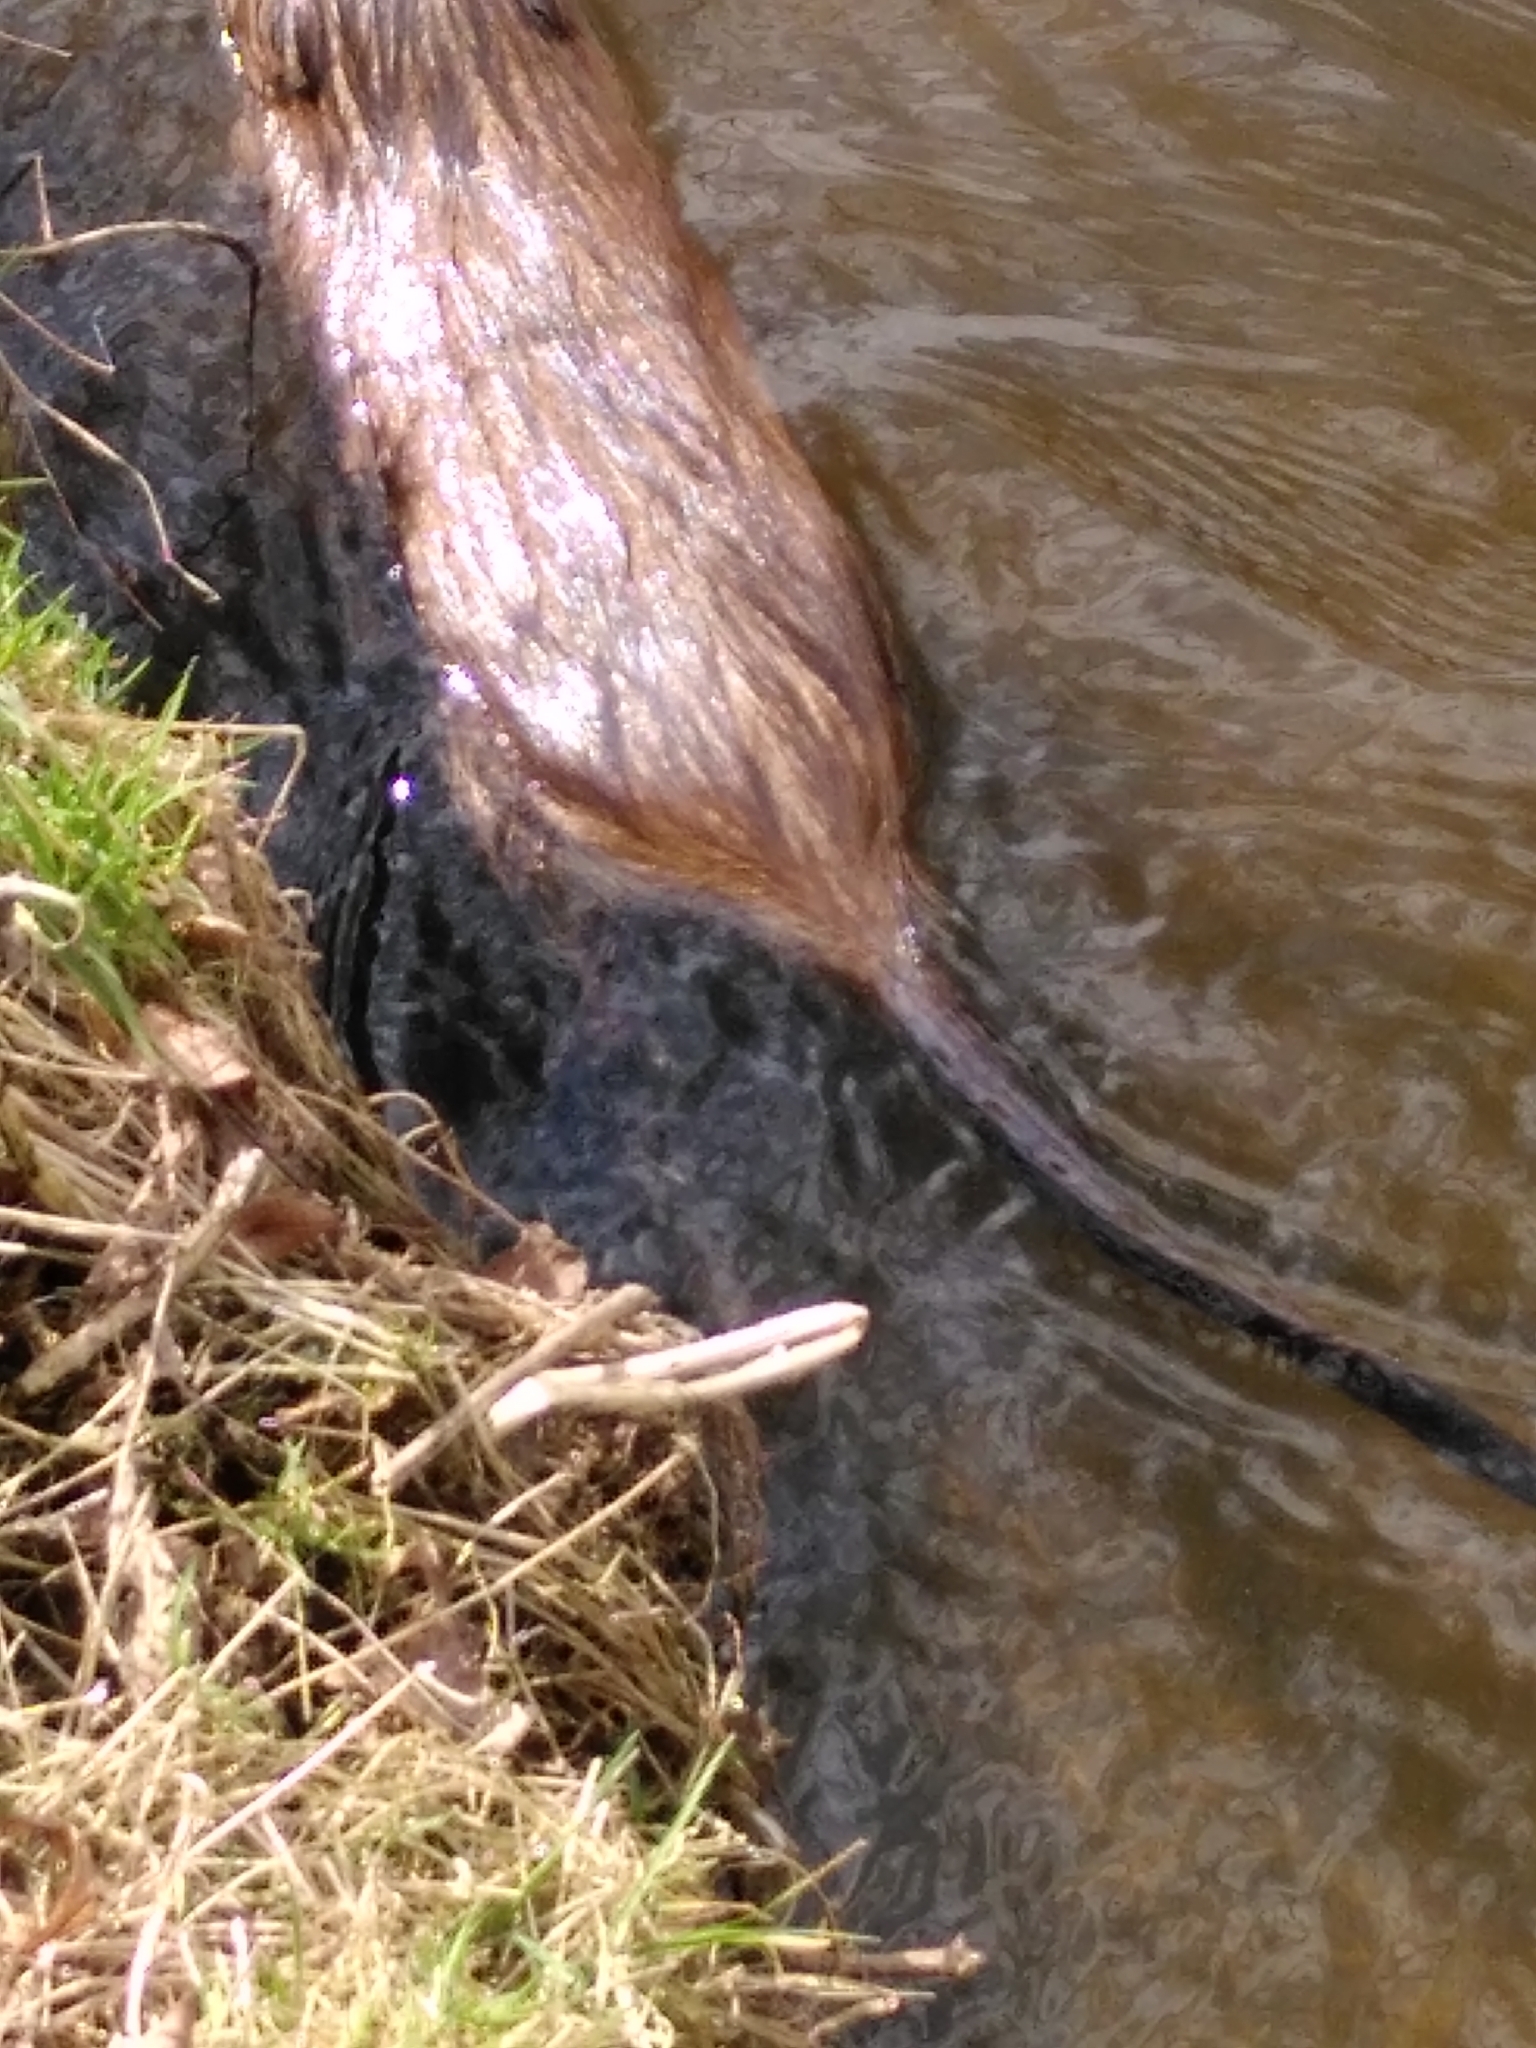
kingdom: Animalia
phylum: Chordata
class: Mammalia
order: Rodentia
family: Myocastoridae
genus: Myocastor
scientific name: Myocastor coypus
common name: Coypu
